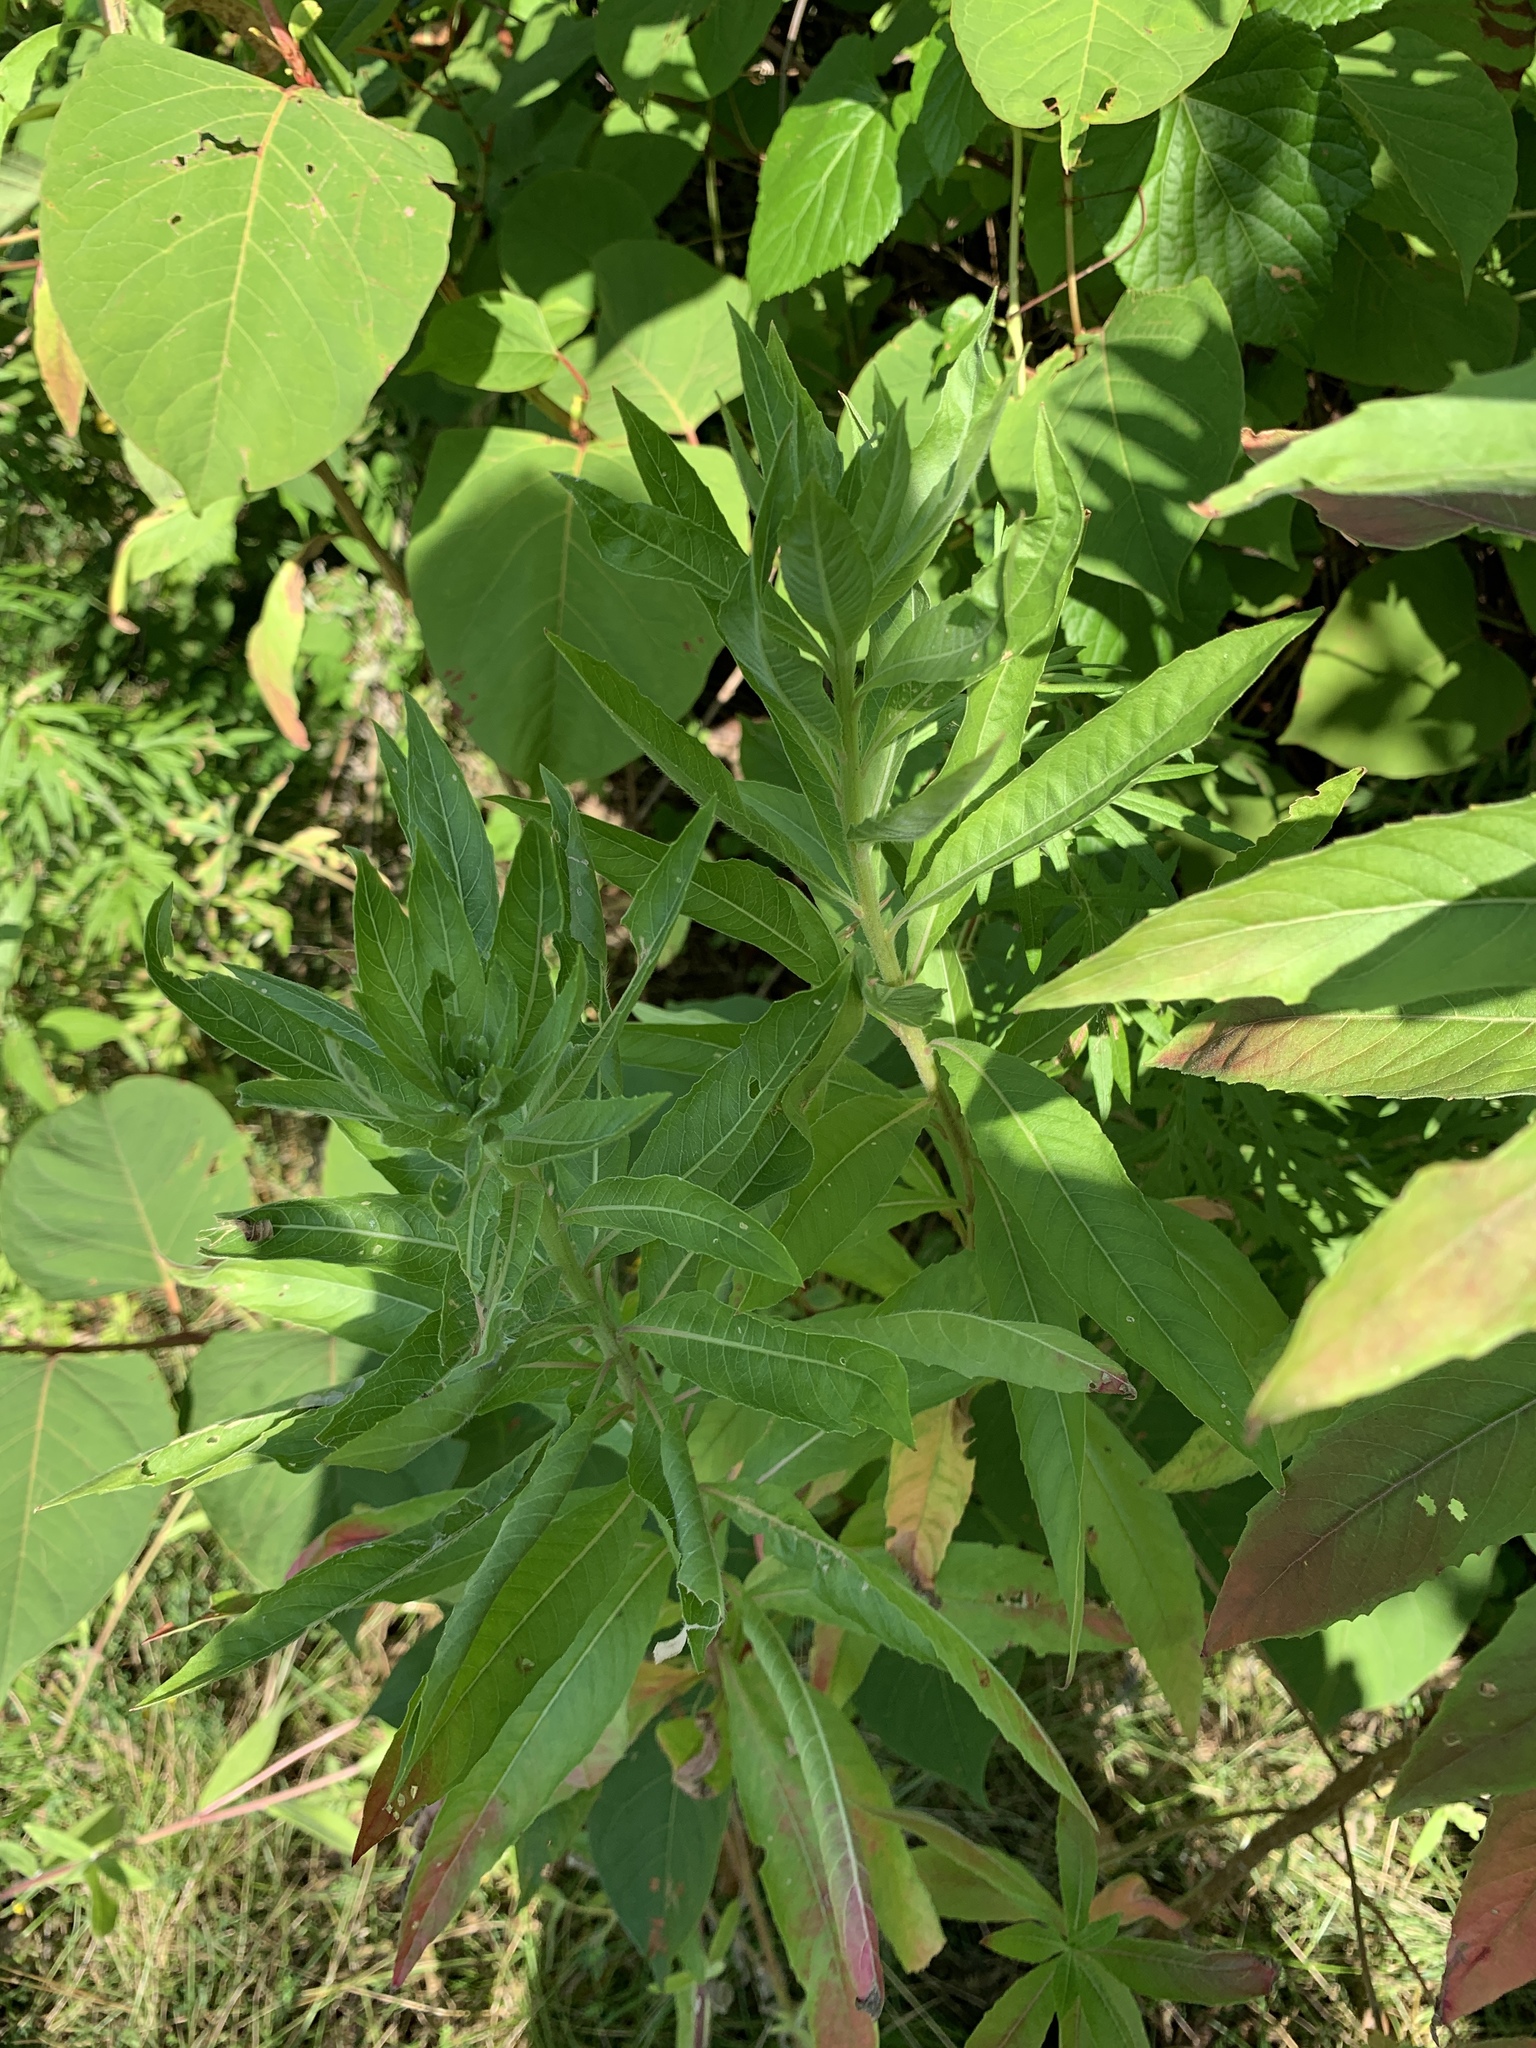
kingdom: Plantae
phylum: Tracheophyta
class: Magnoliopsida
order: Myrtales
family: Onagraceae
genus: Oenothera
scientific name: Oenothera biennis
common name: Common evening-primrose
